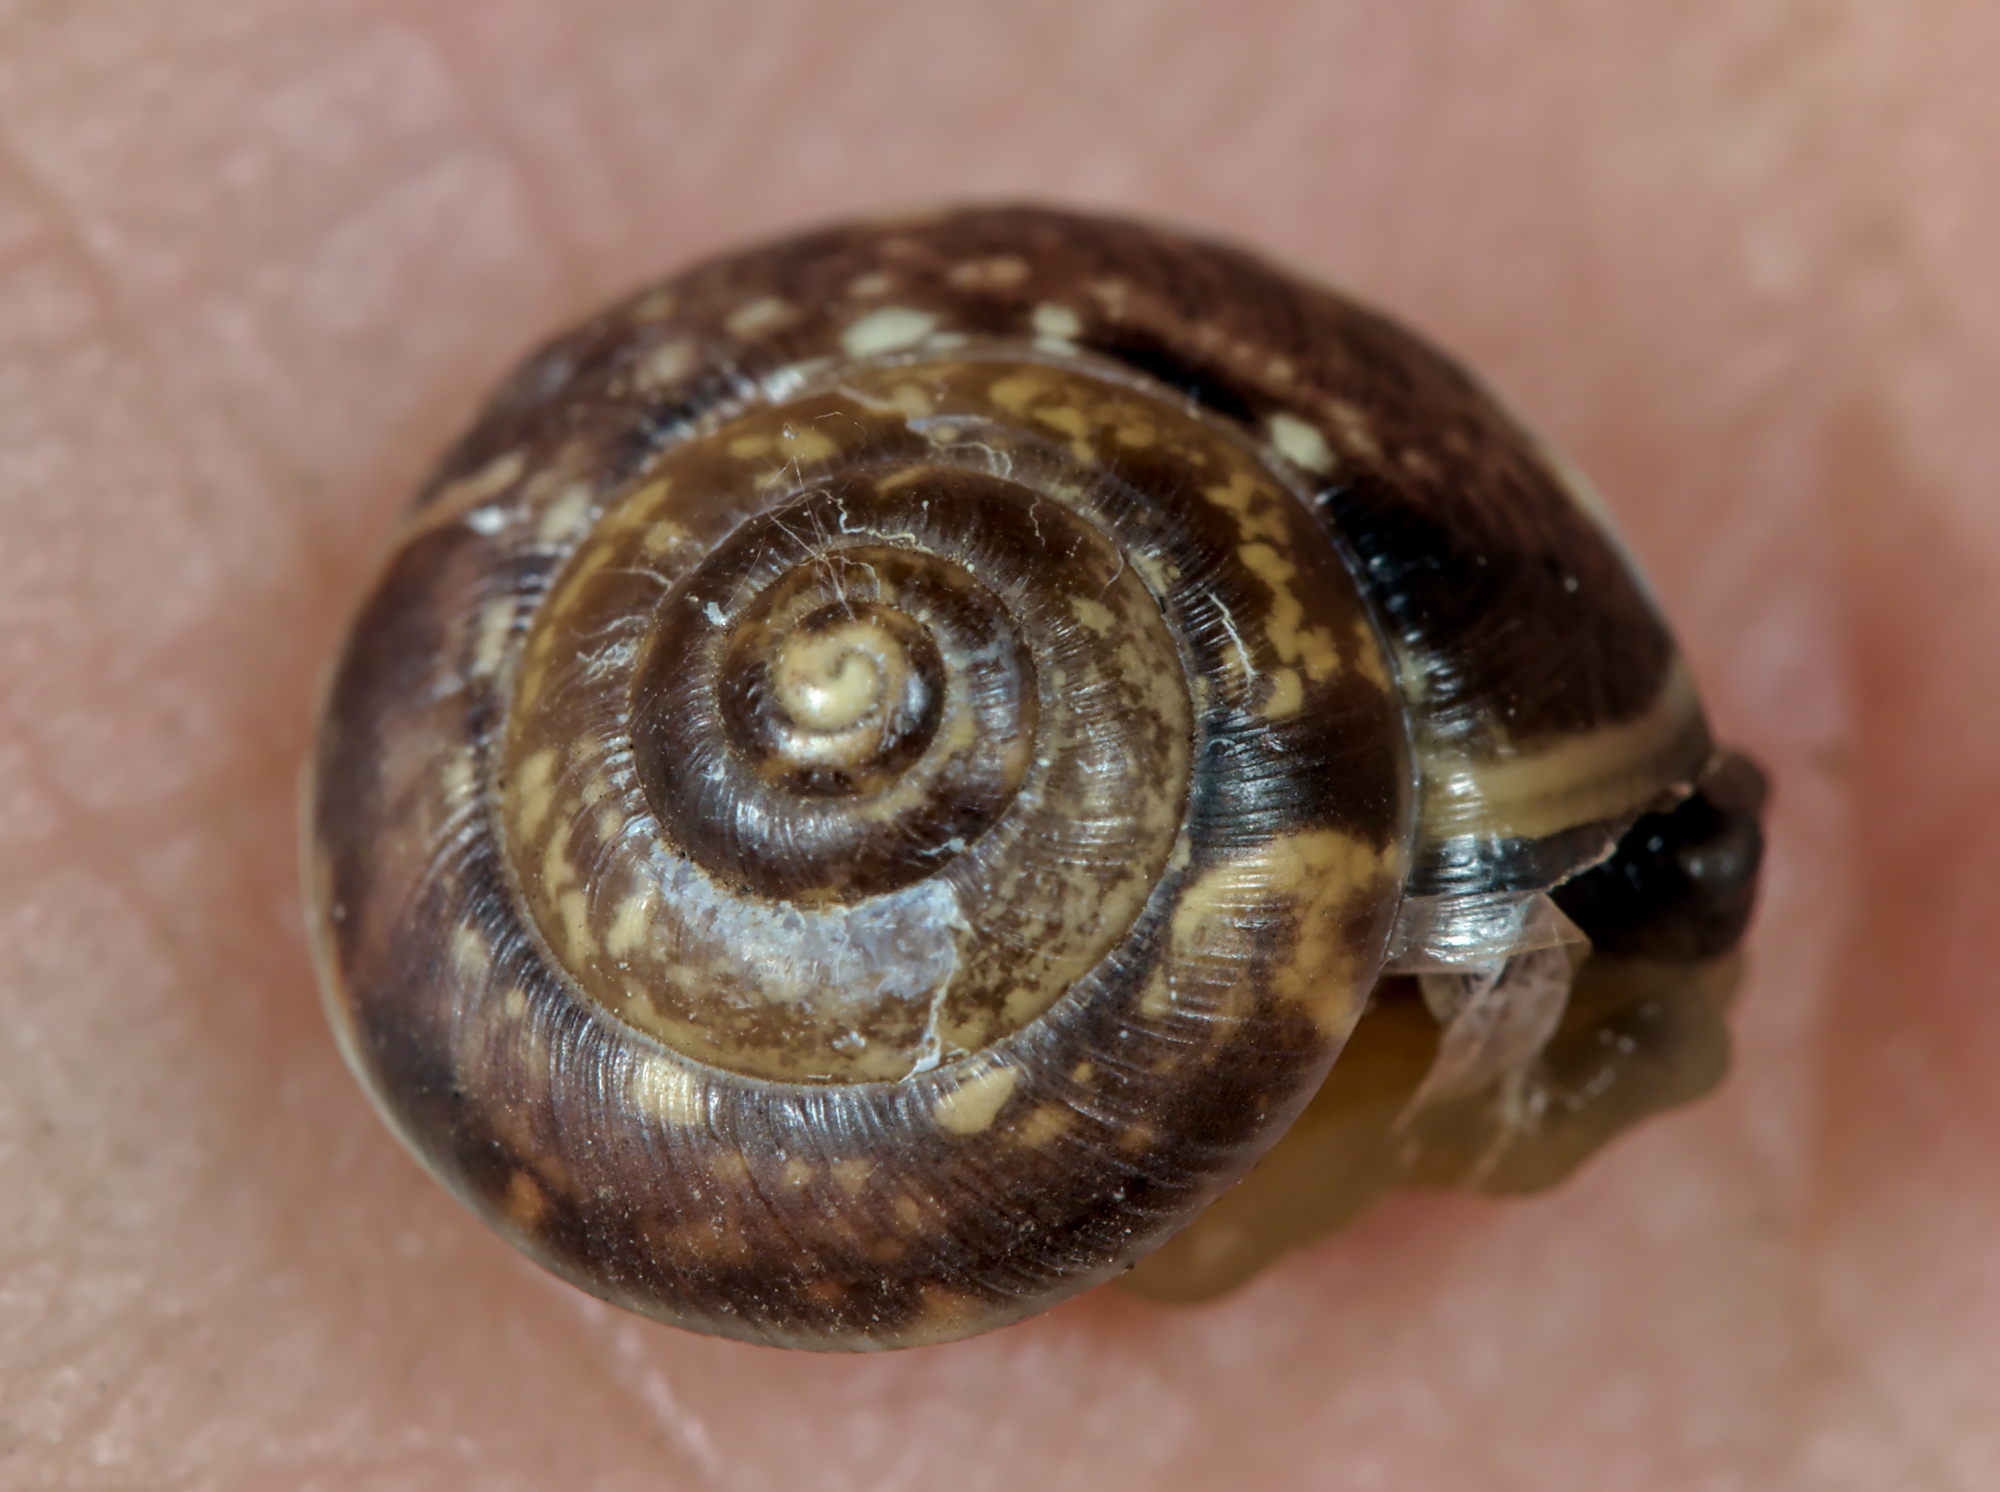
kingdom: Animalia
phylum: Mollusca
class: Gastropoda
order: Stylommatophora
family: Hygromiidae
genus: Hygromia
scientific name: Hygromia cinctella
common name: Girdled snail
